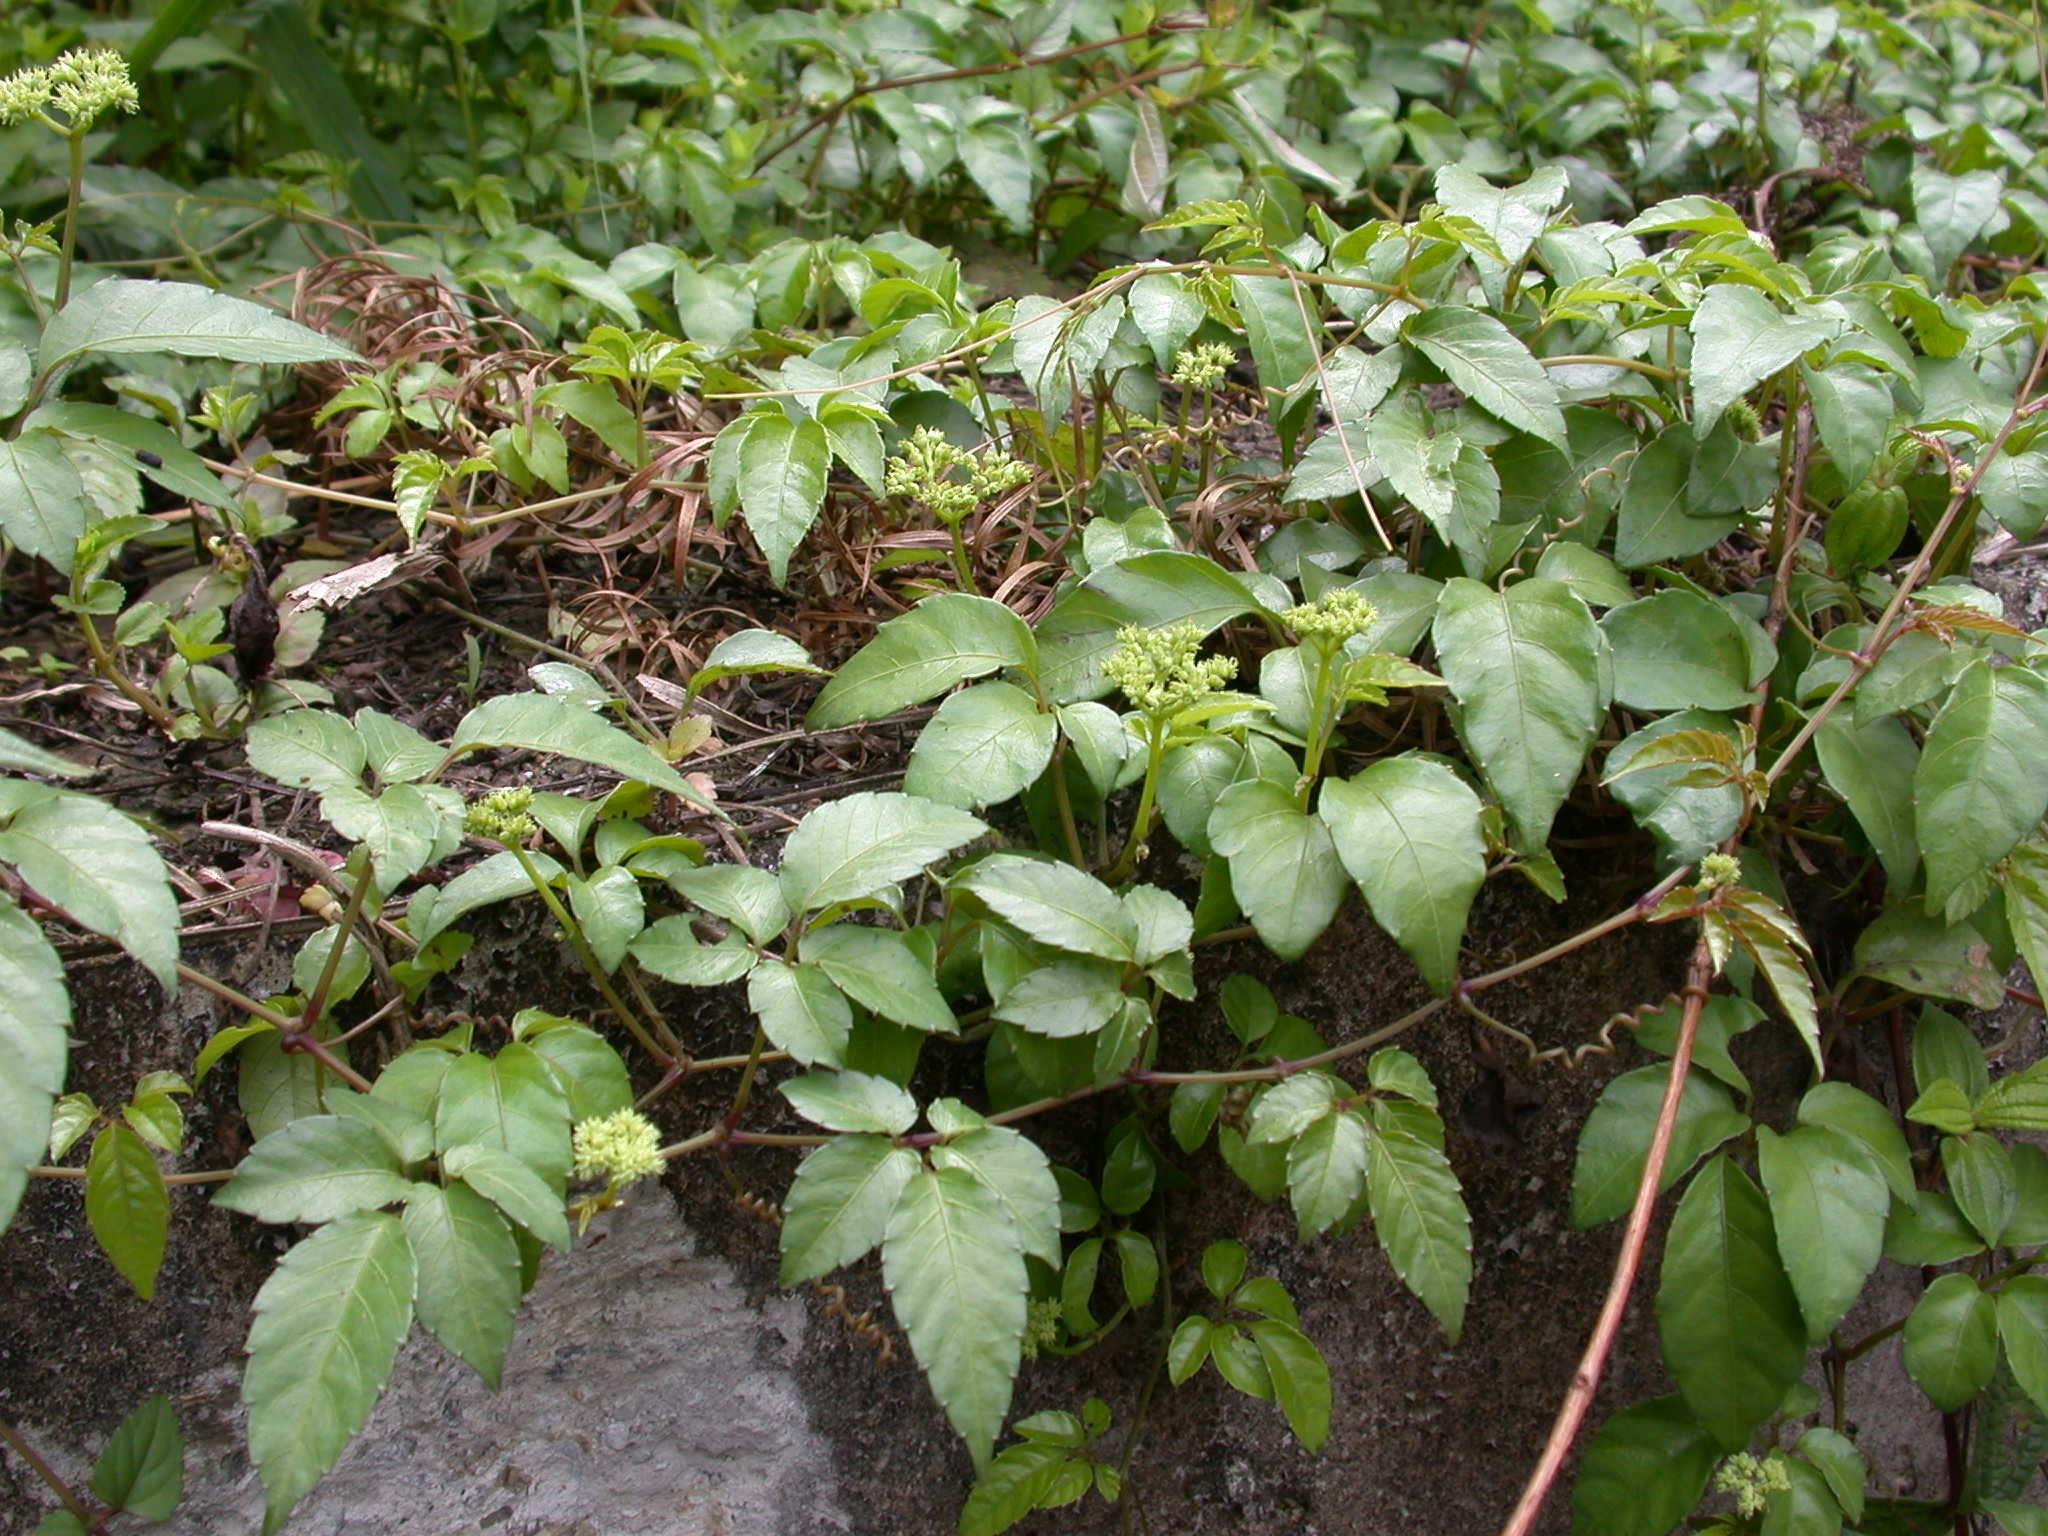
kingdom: Plantae
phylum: Tracheophyta
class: Magnoliopsida
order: Vitales
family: Vitaceae
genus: Causonis
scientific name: Causonis japonica
